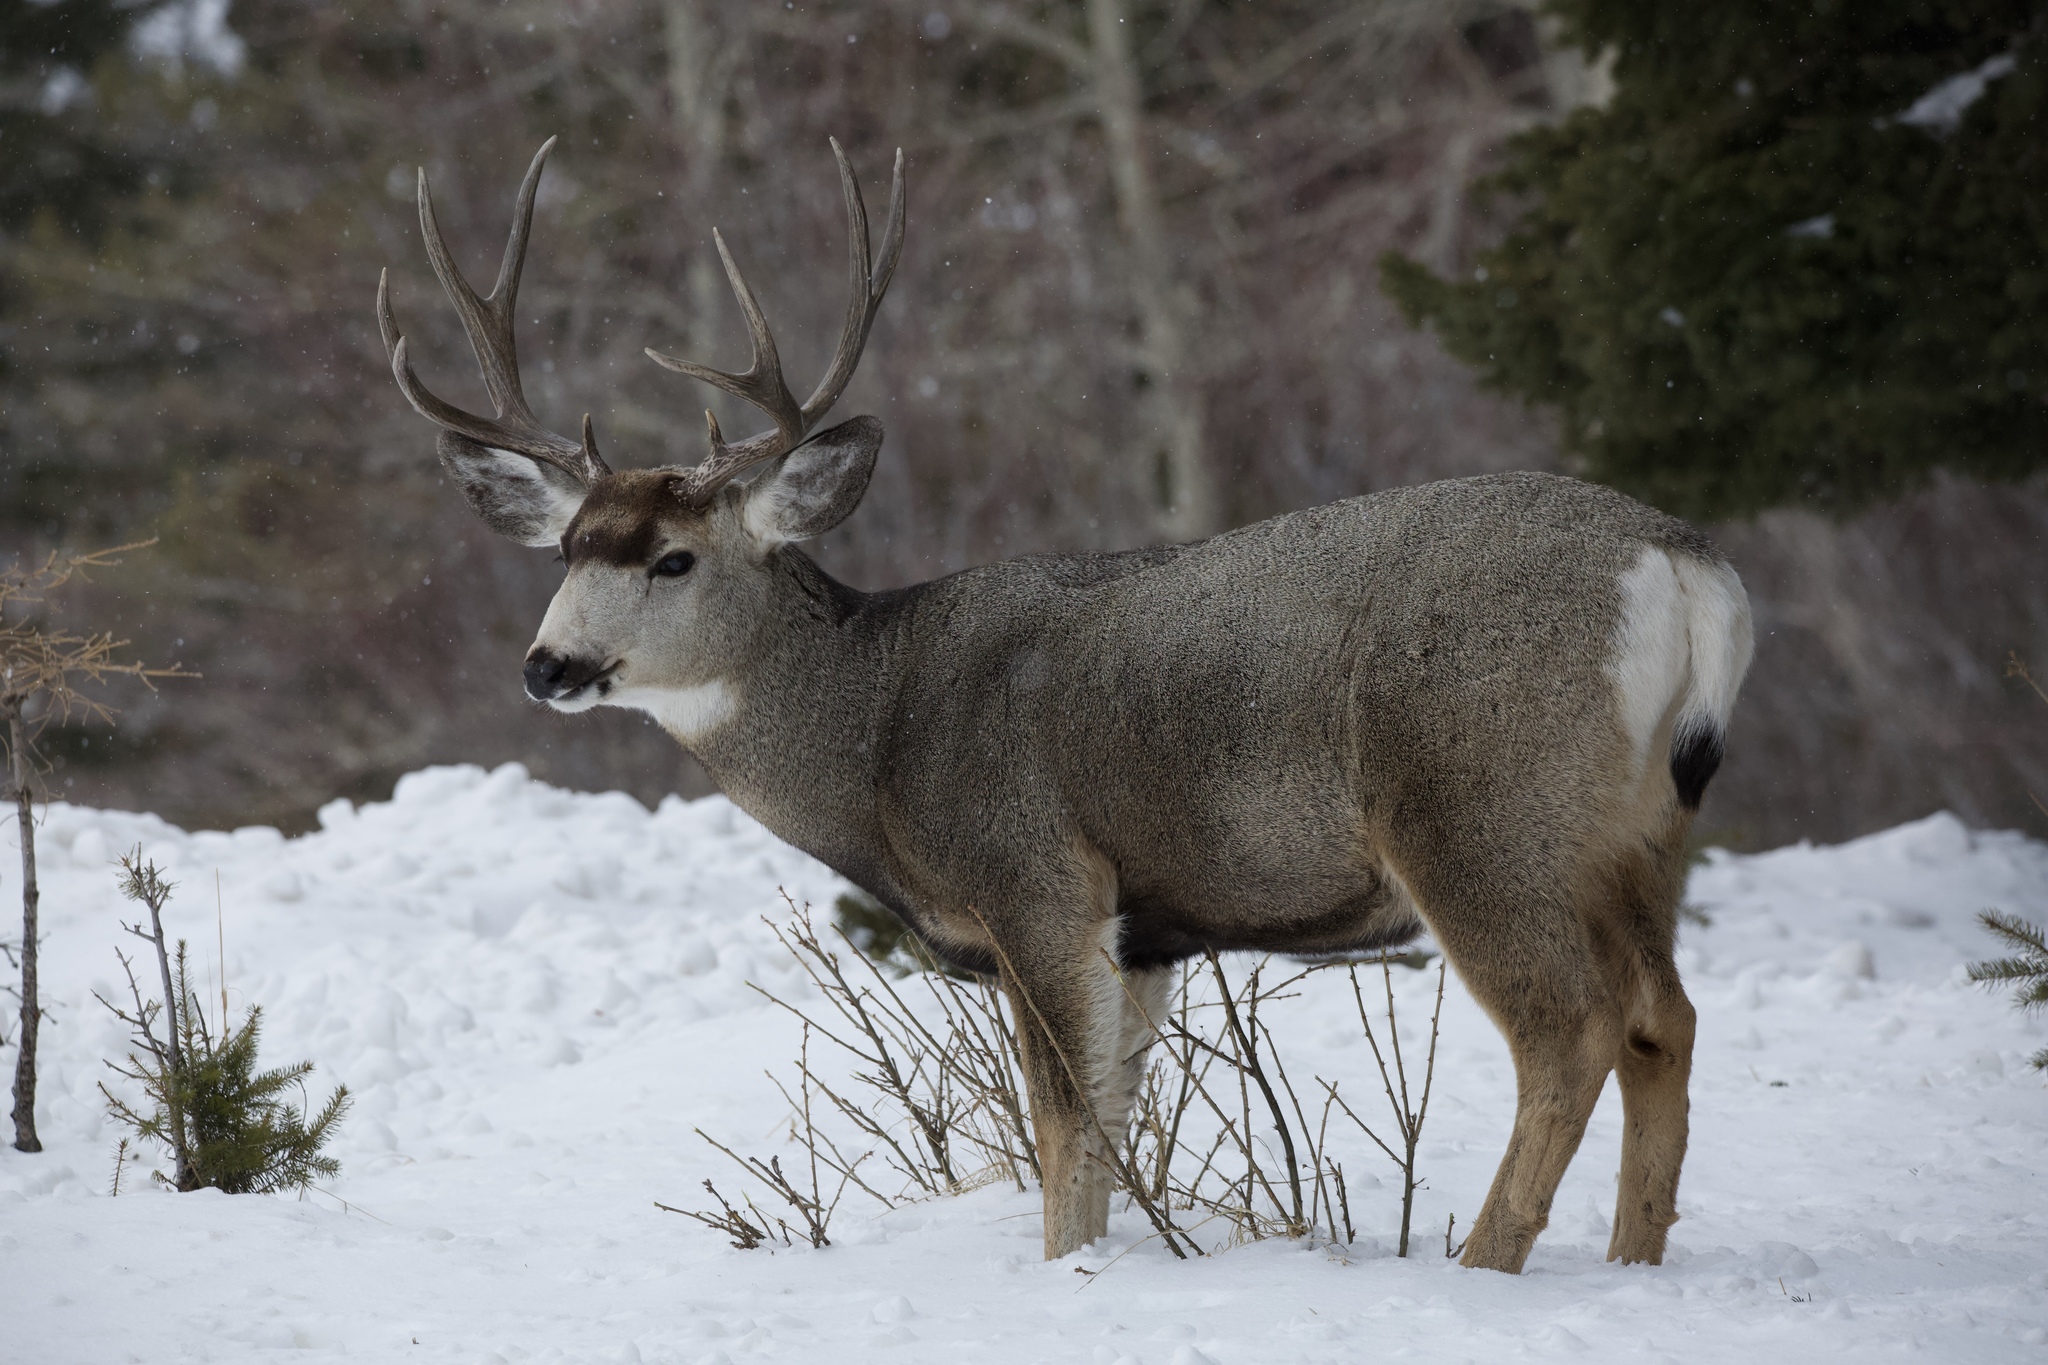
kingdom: Animalia
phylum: Chordata
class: Mammalia
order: Artiodactyla
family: Cervidae
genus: Odocoileus
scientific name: Odocoileus hemionus
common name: Mule deer
